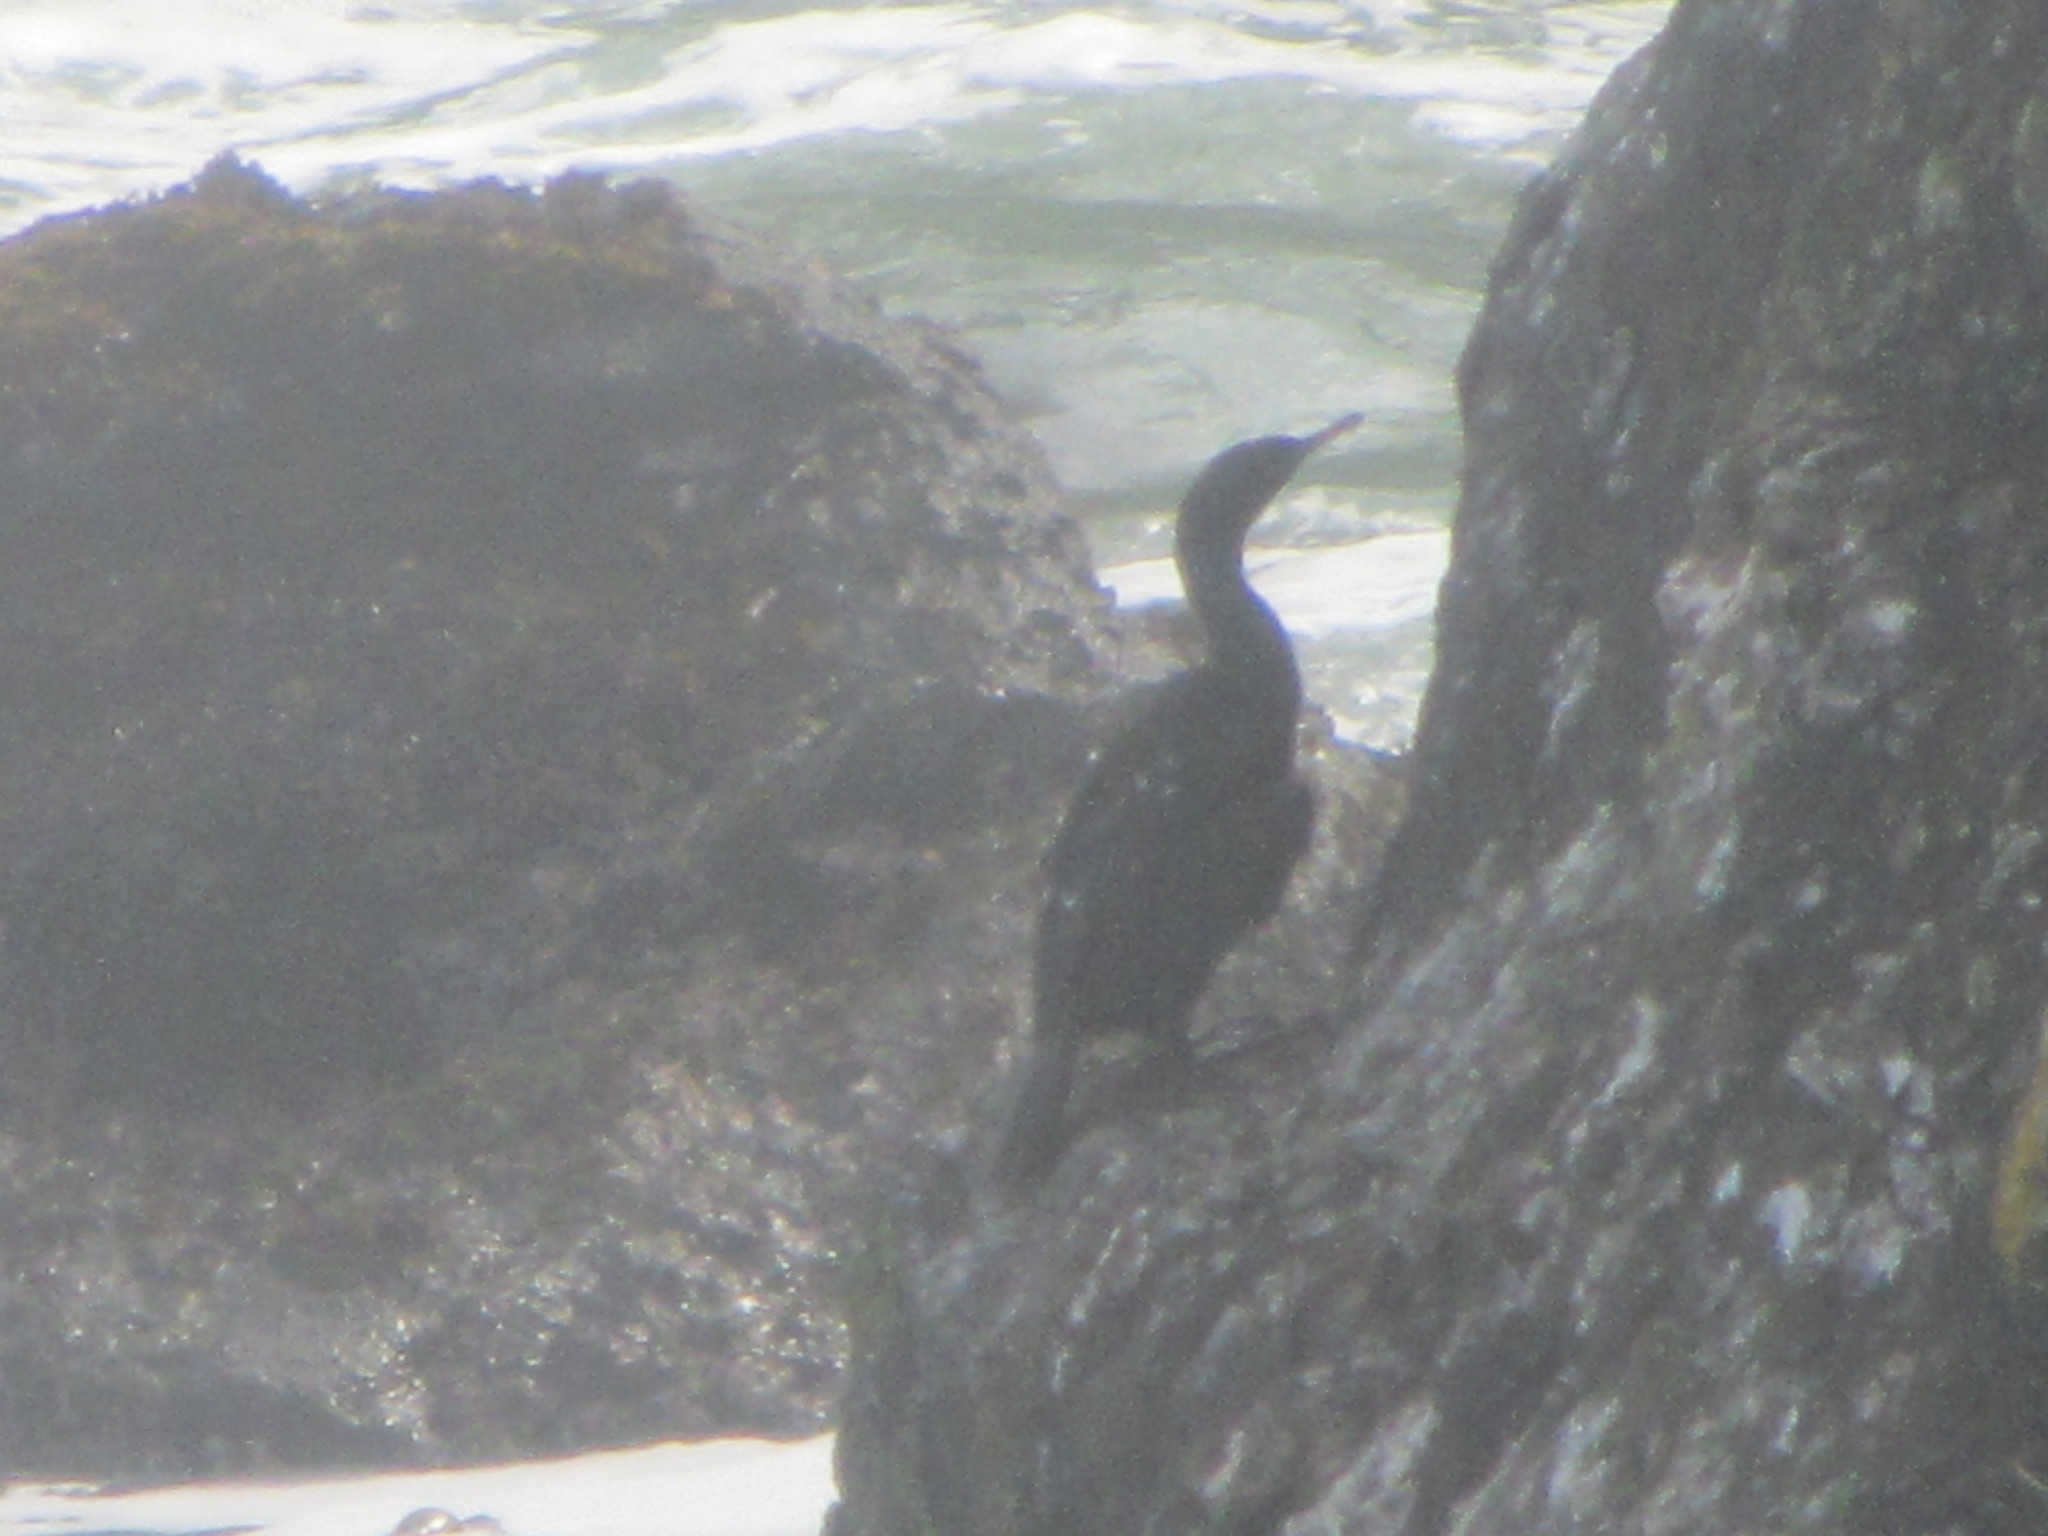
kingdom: Animalia
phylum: Chordata
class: Aves
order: Suliformes
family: Phalacrocoracidae
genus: Phalacrocorax
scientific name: Phalacrocorax pelagicus
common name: Pelagic cormorant
